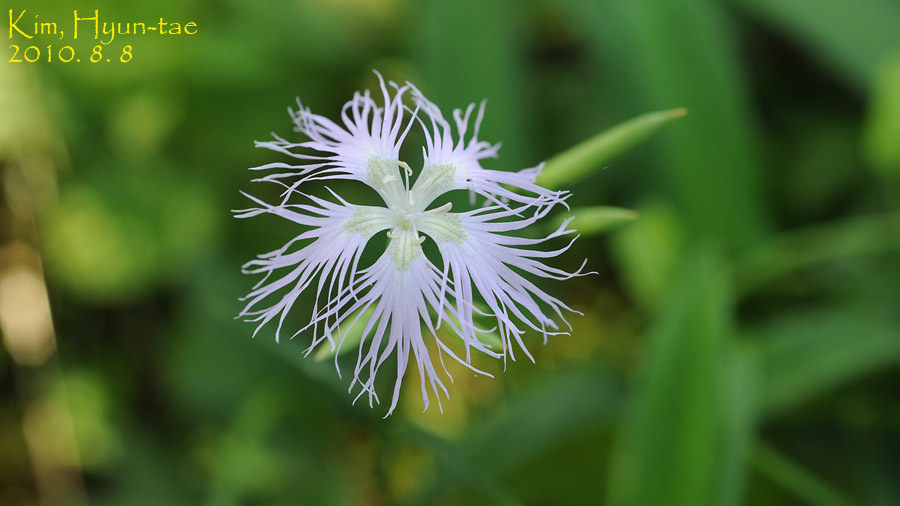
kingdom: Plantae
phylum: Tracheophyta
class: Magnoliopsida
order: Caryophyllales
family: Caryophyllaceae
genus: Dianthus
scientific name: Dianthus superbus
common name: Fringed pink
